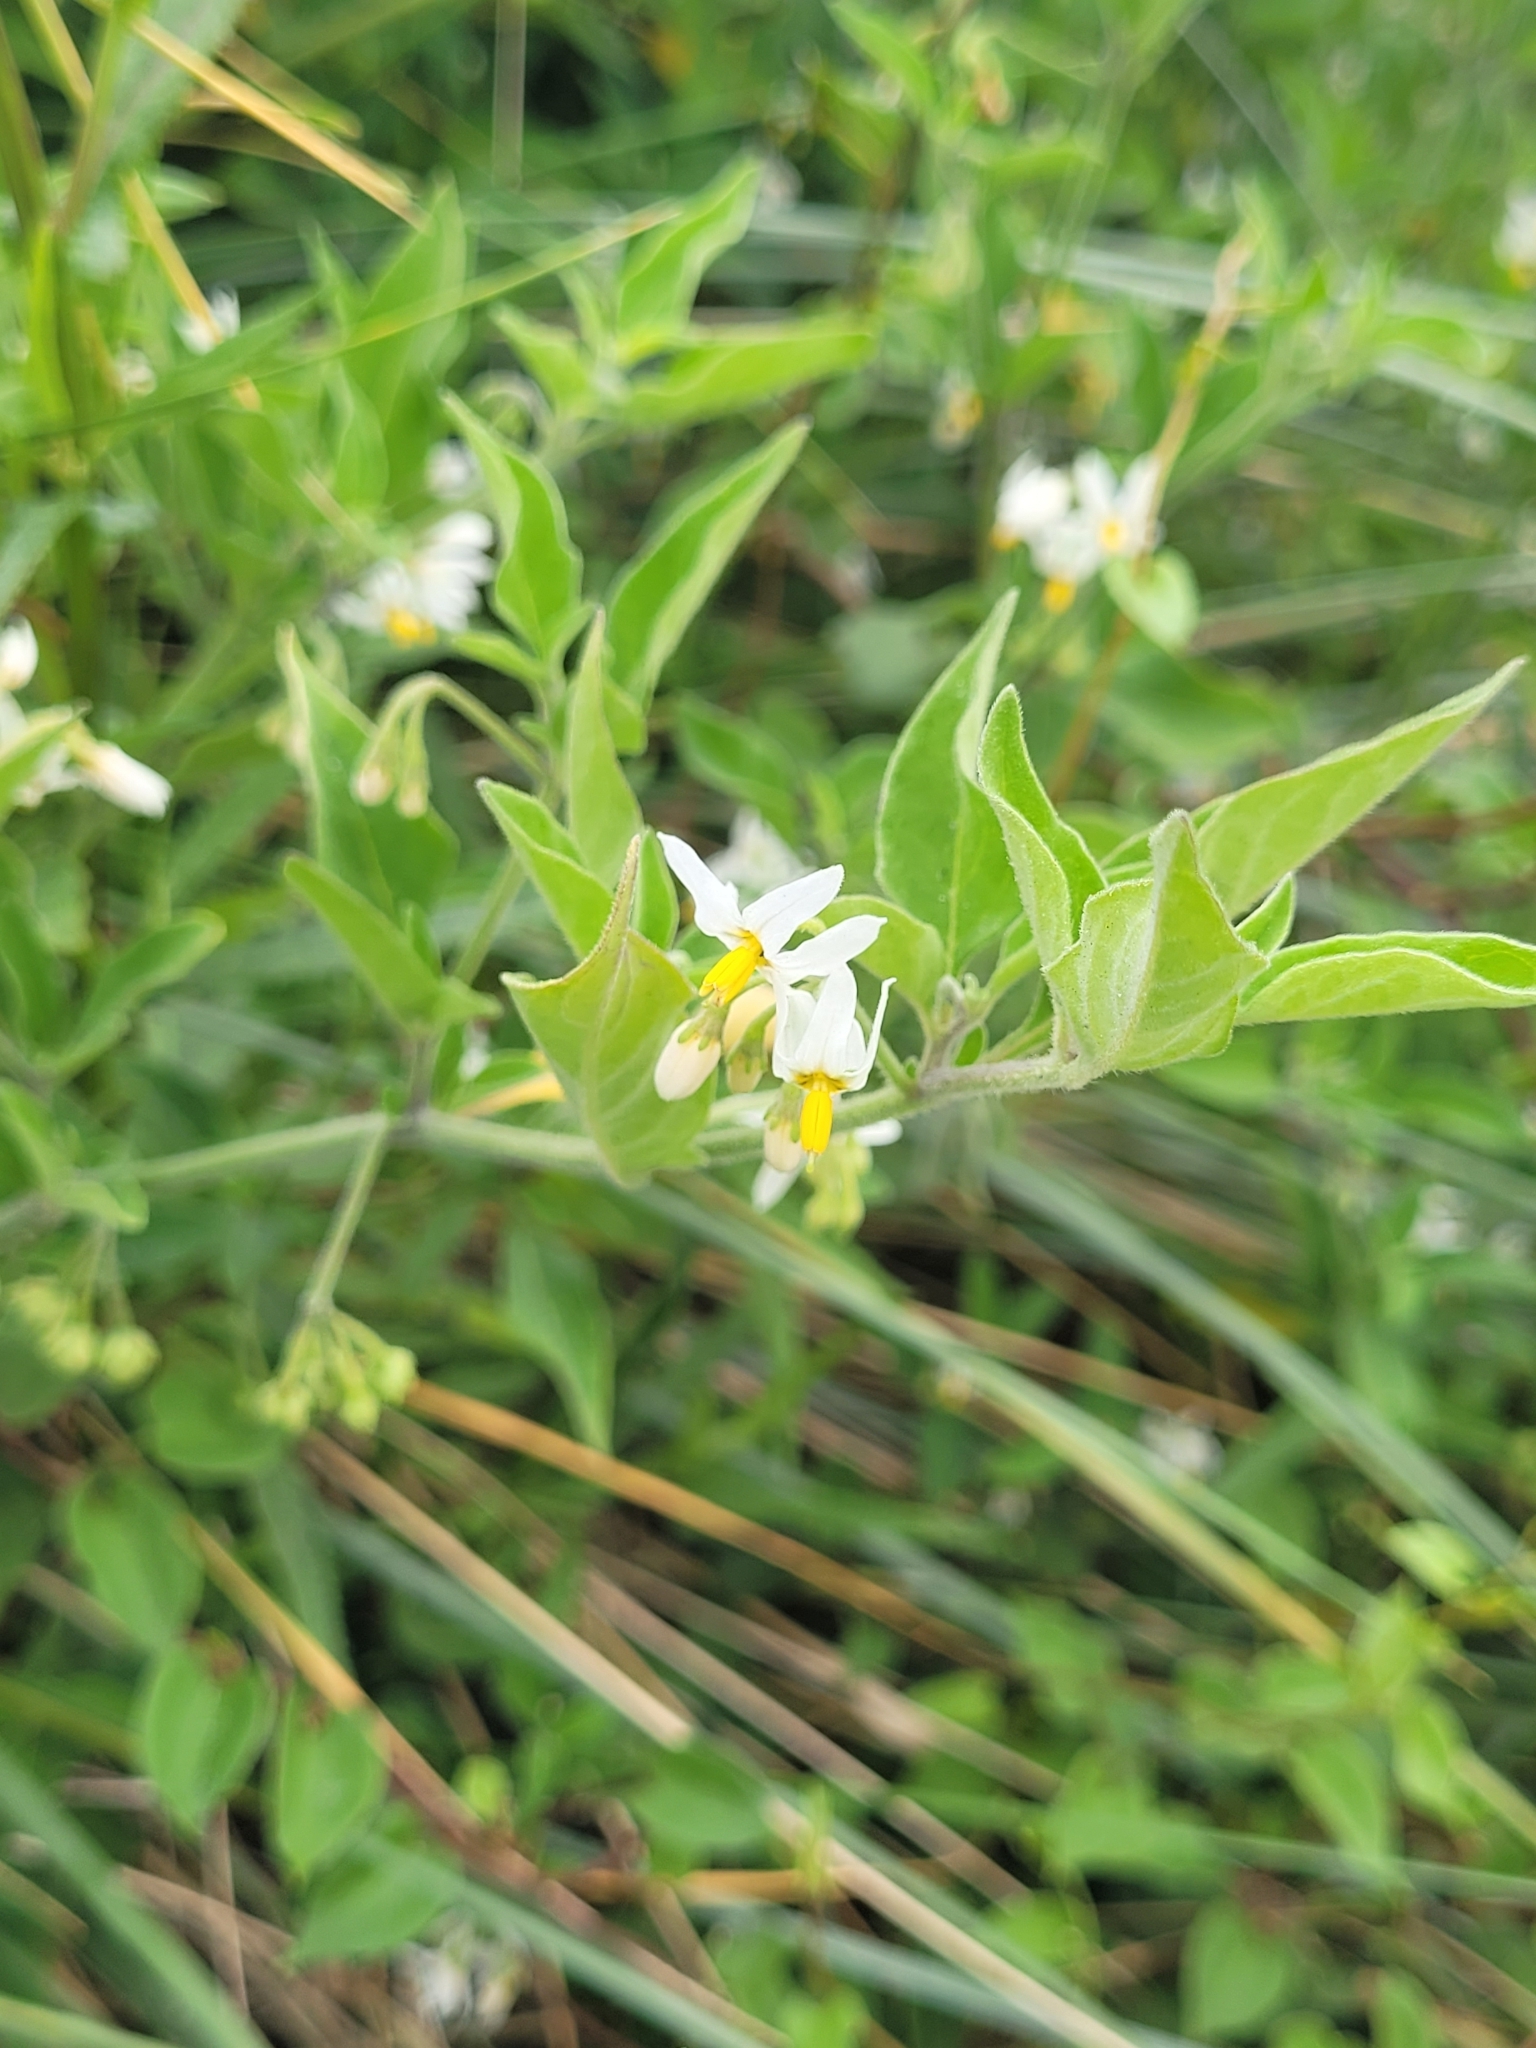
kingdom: Plantae
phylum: Tracheophyta
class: Magnoliopsida
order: Solanales
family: Solanaceae
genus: Solanum
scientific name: Solanum chenopodioides
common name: Tall nightshade
